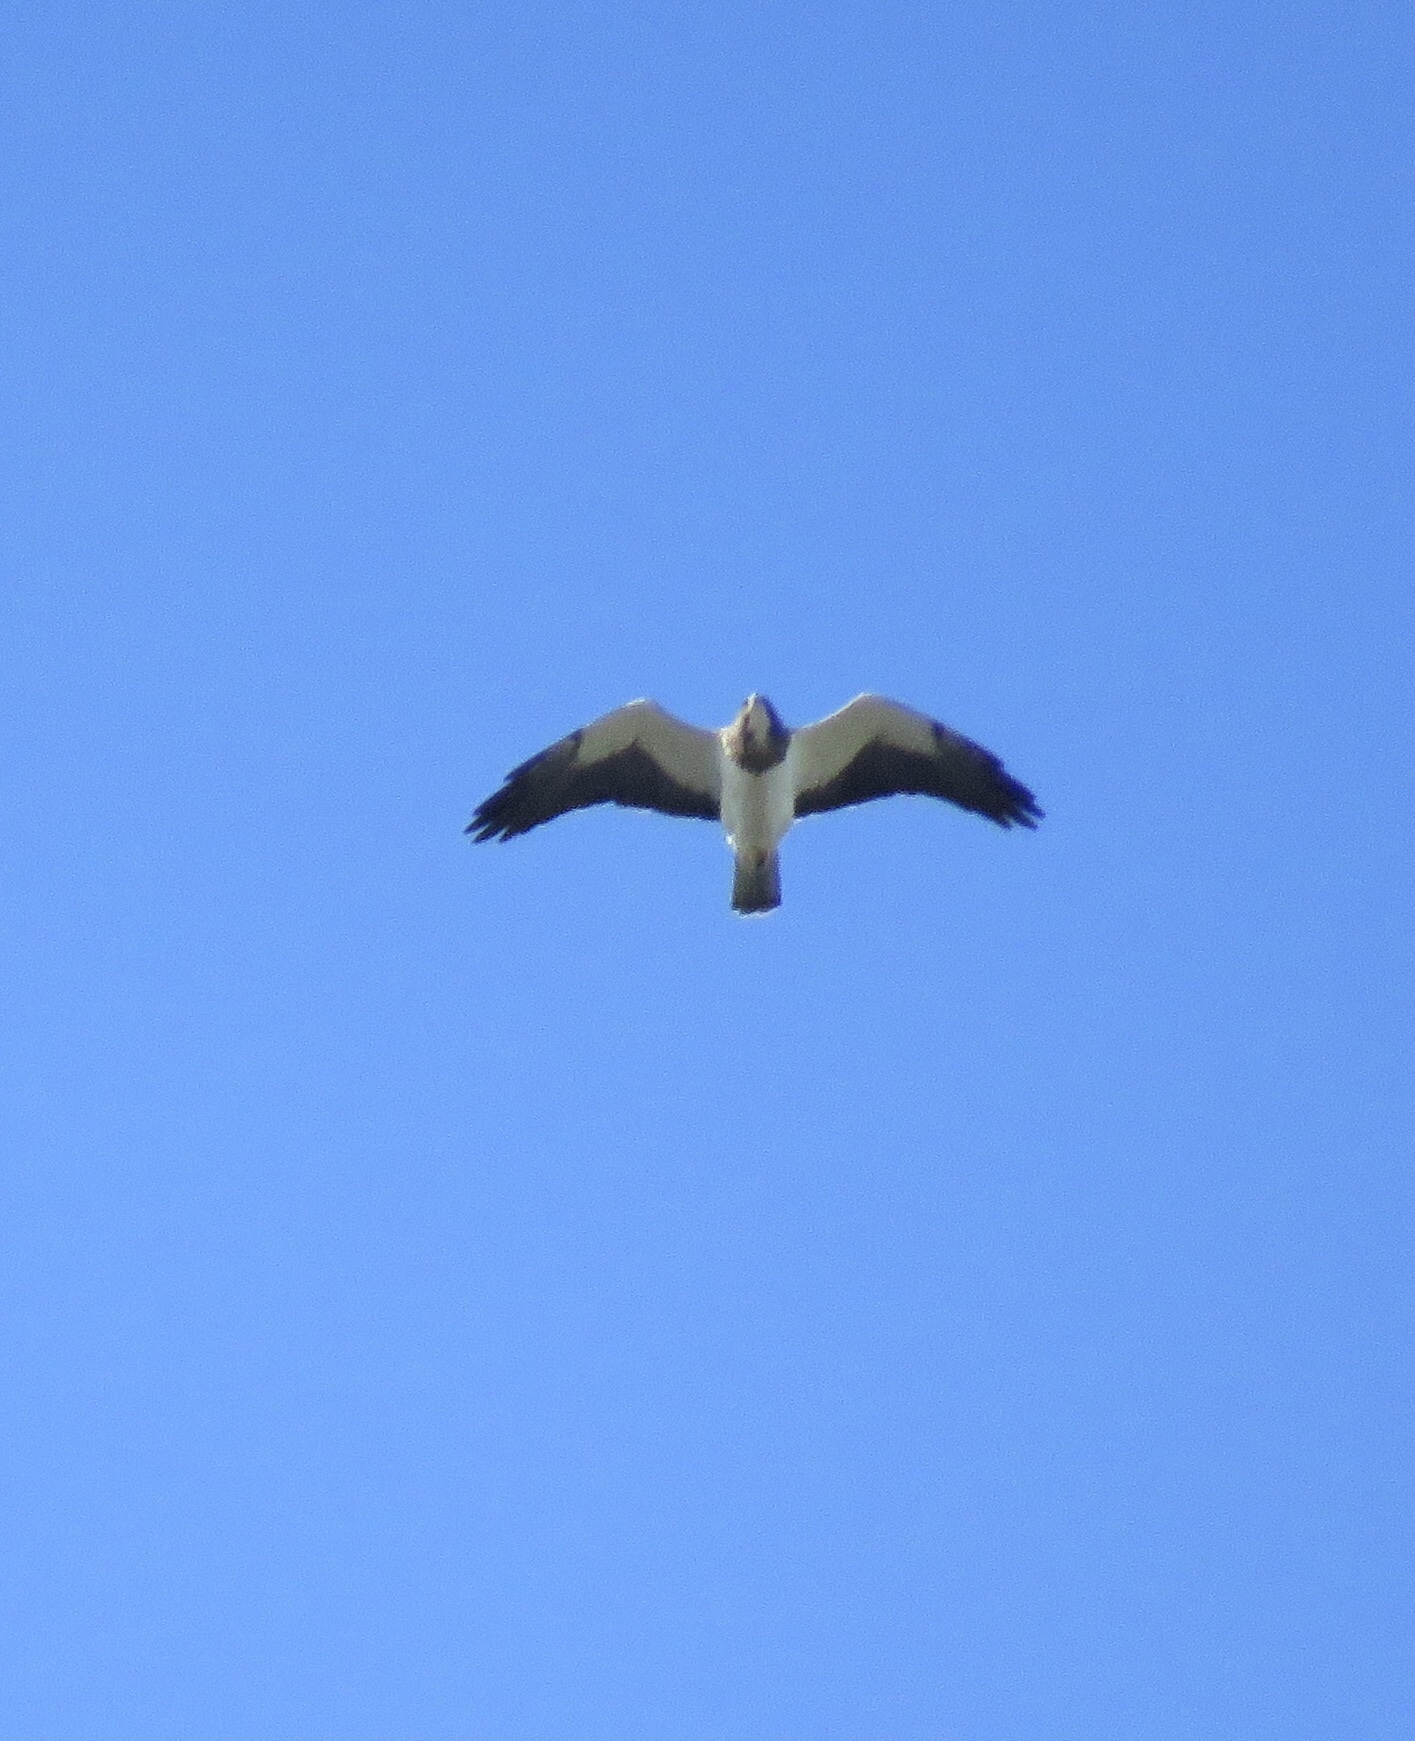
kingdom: Animalia
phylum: Chordata
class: Aves
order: Accipitriformes
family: Accipitridae
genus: Buteo
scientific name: Buteo swainsoni
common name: Swainson's hawk
